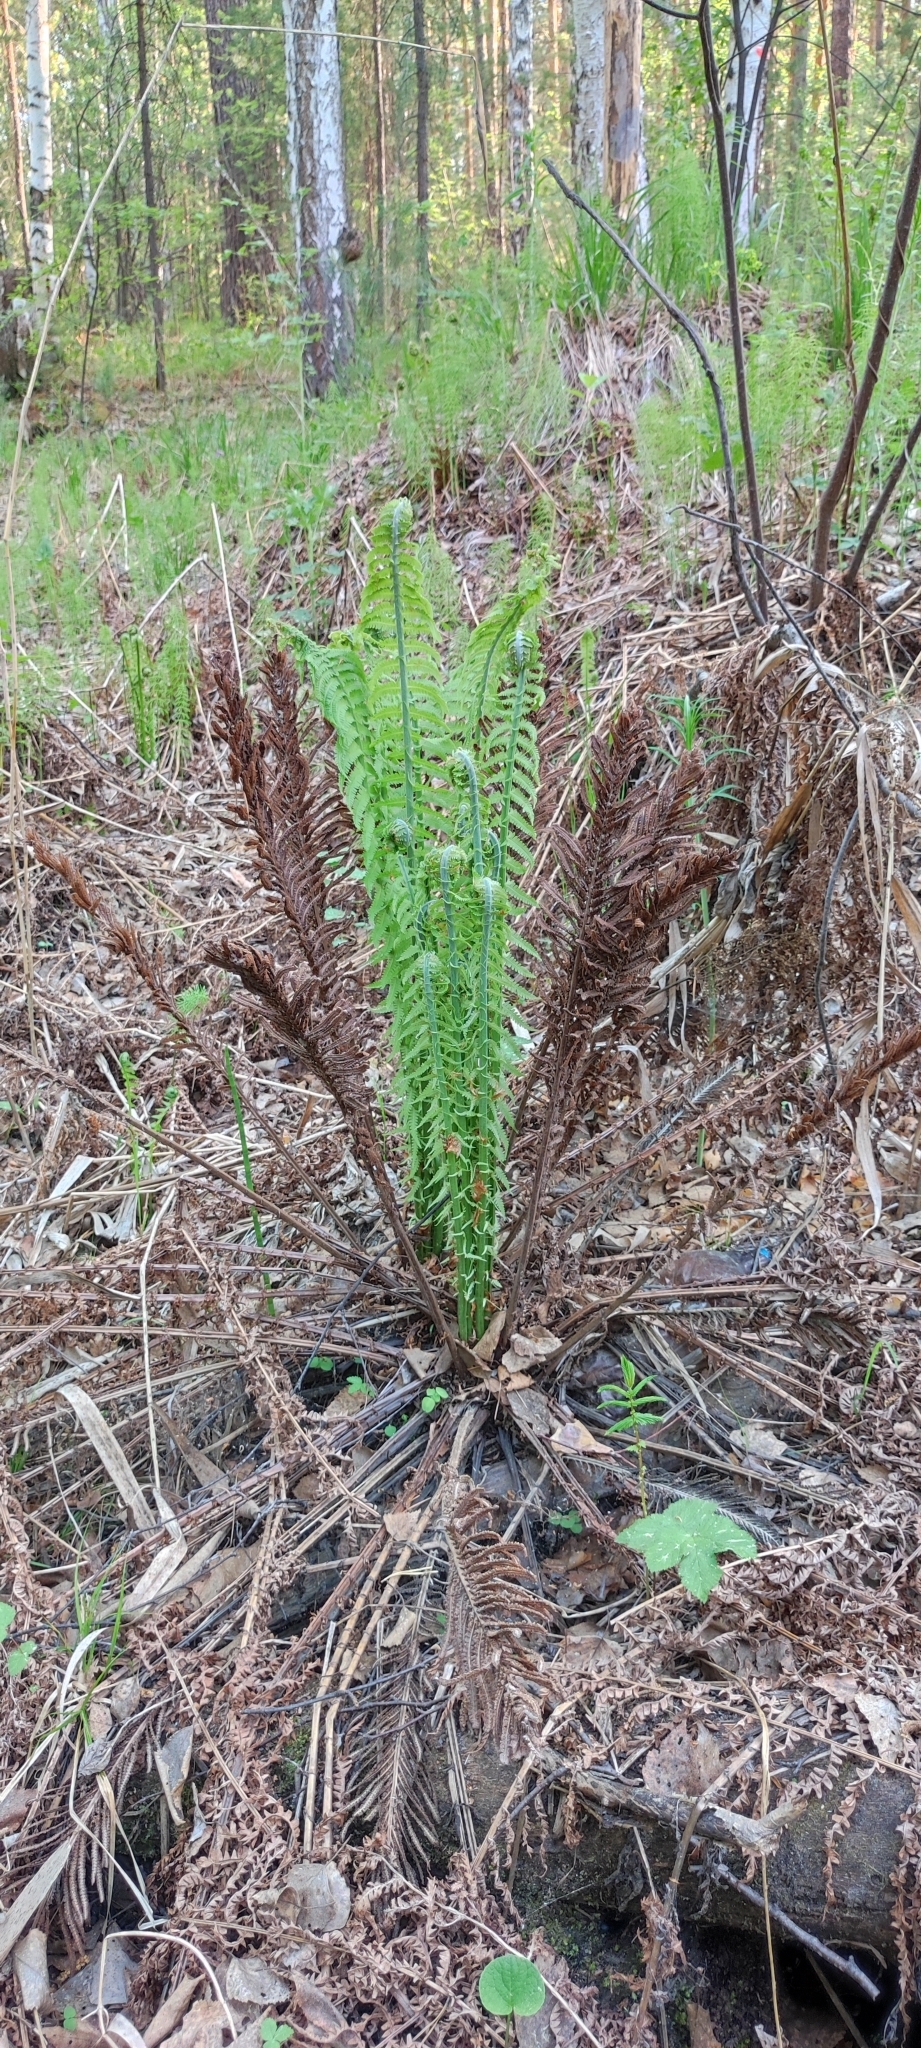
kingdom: Plantae
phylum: Tracheophyta
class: Polypodiopsida
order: Polypodiales
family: Onocleaceae
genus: Matteuccia
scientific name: Matteuccia struthiopteris
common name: Ostrich fern
